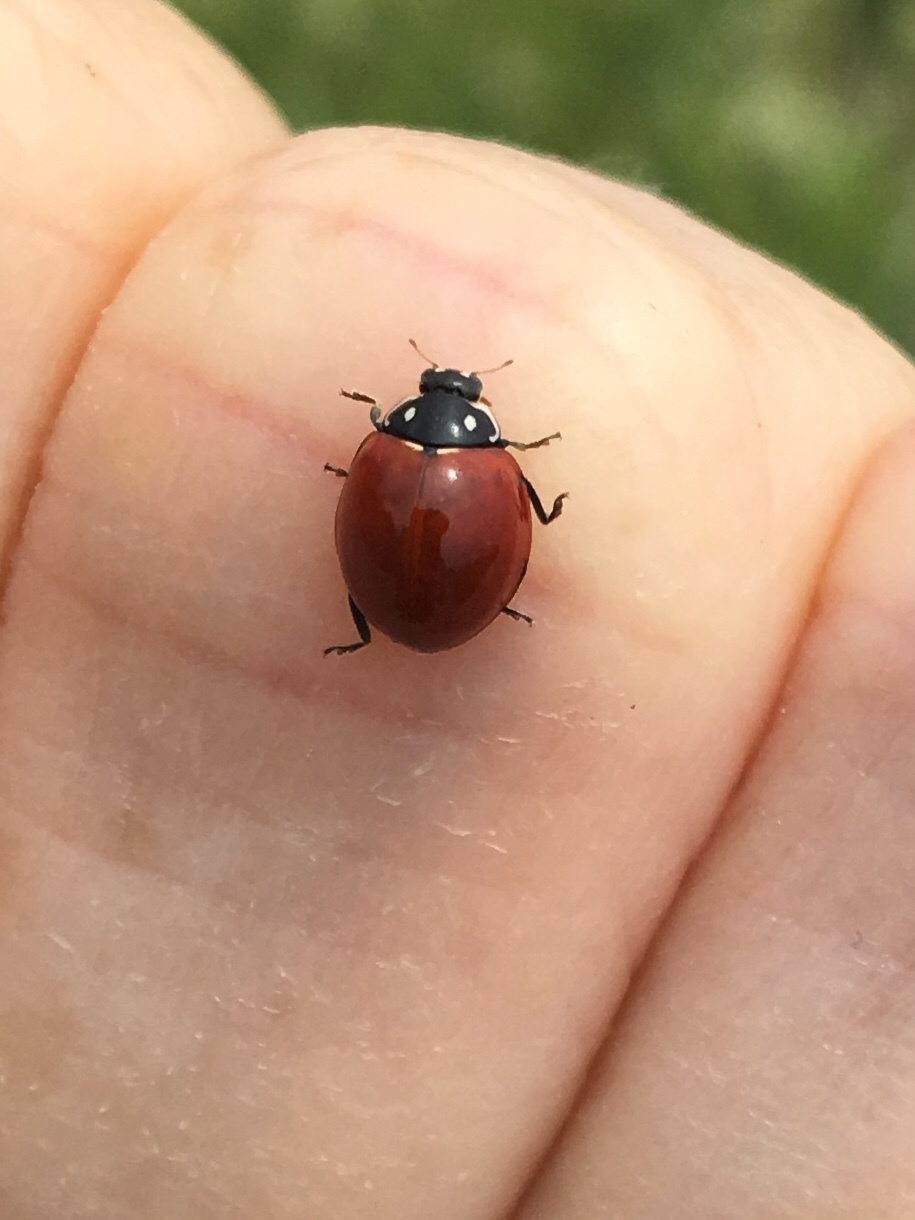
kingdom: Animalia
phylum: Arthropoda
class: Insecta
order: Coleoptera
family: Coccinellidae
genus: Cycloneda
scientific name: Cycloneda sanguinea
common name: Ladybird beetle
